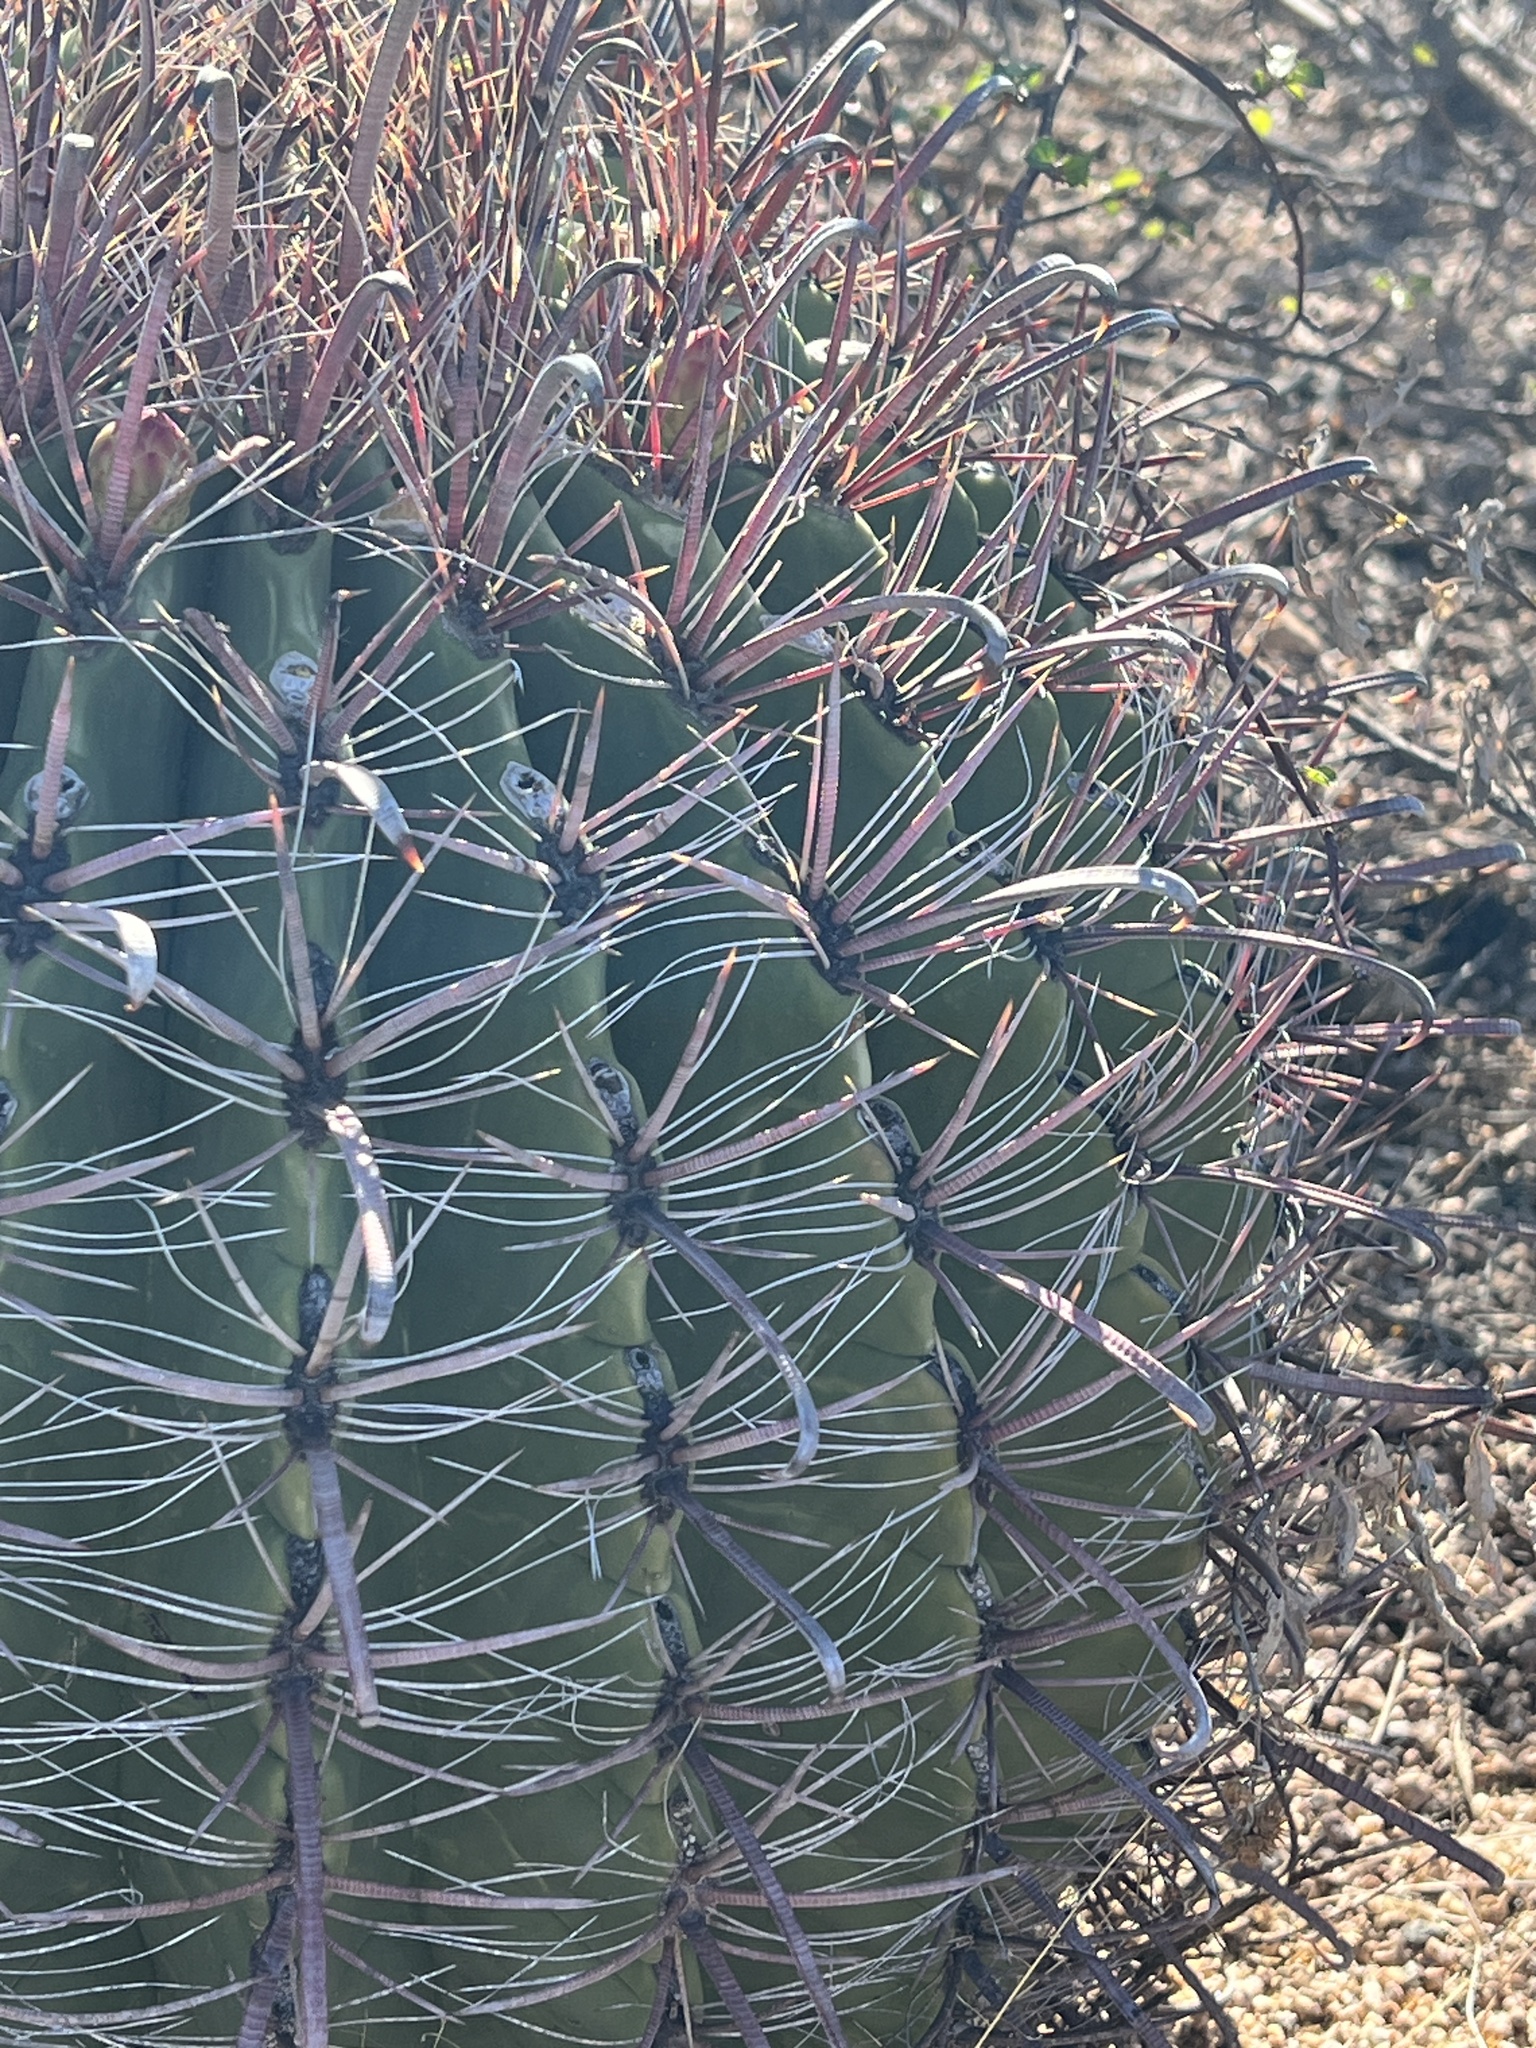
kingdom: Plantae
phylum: Tracheophyta
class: Magnoliopsida
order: Caryophyllales
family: Cactaceae
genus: Ferocactus
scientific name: Ferocactus wislizeni
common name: Candy barrel cactus
